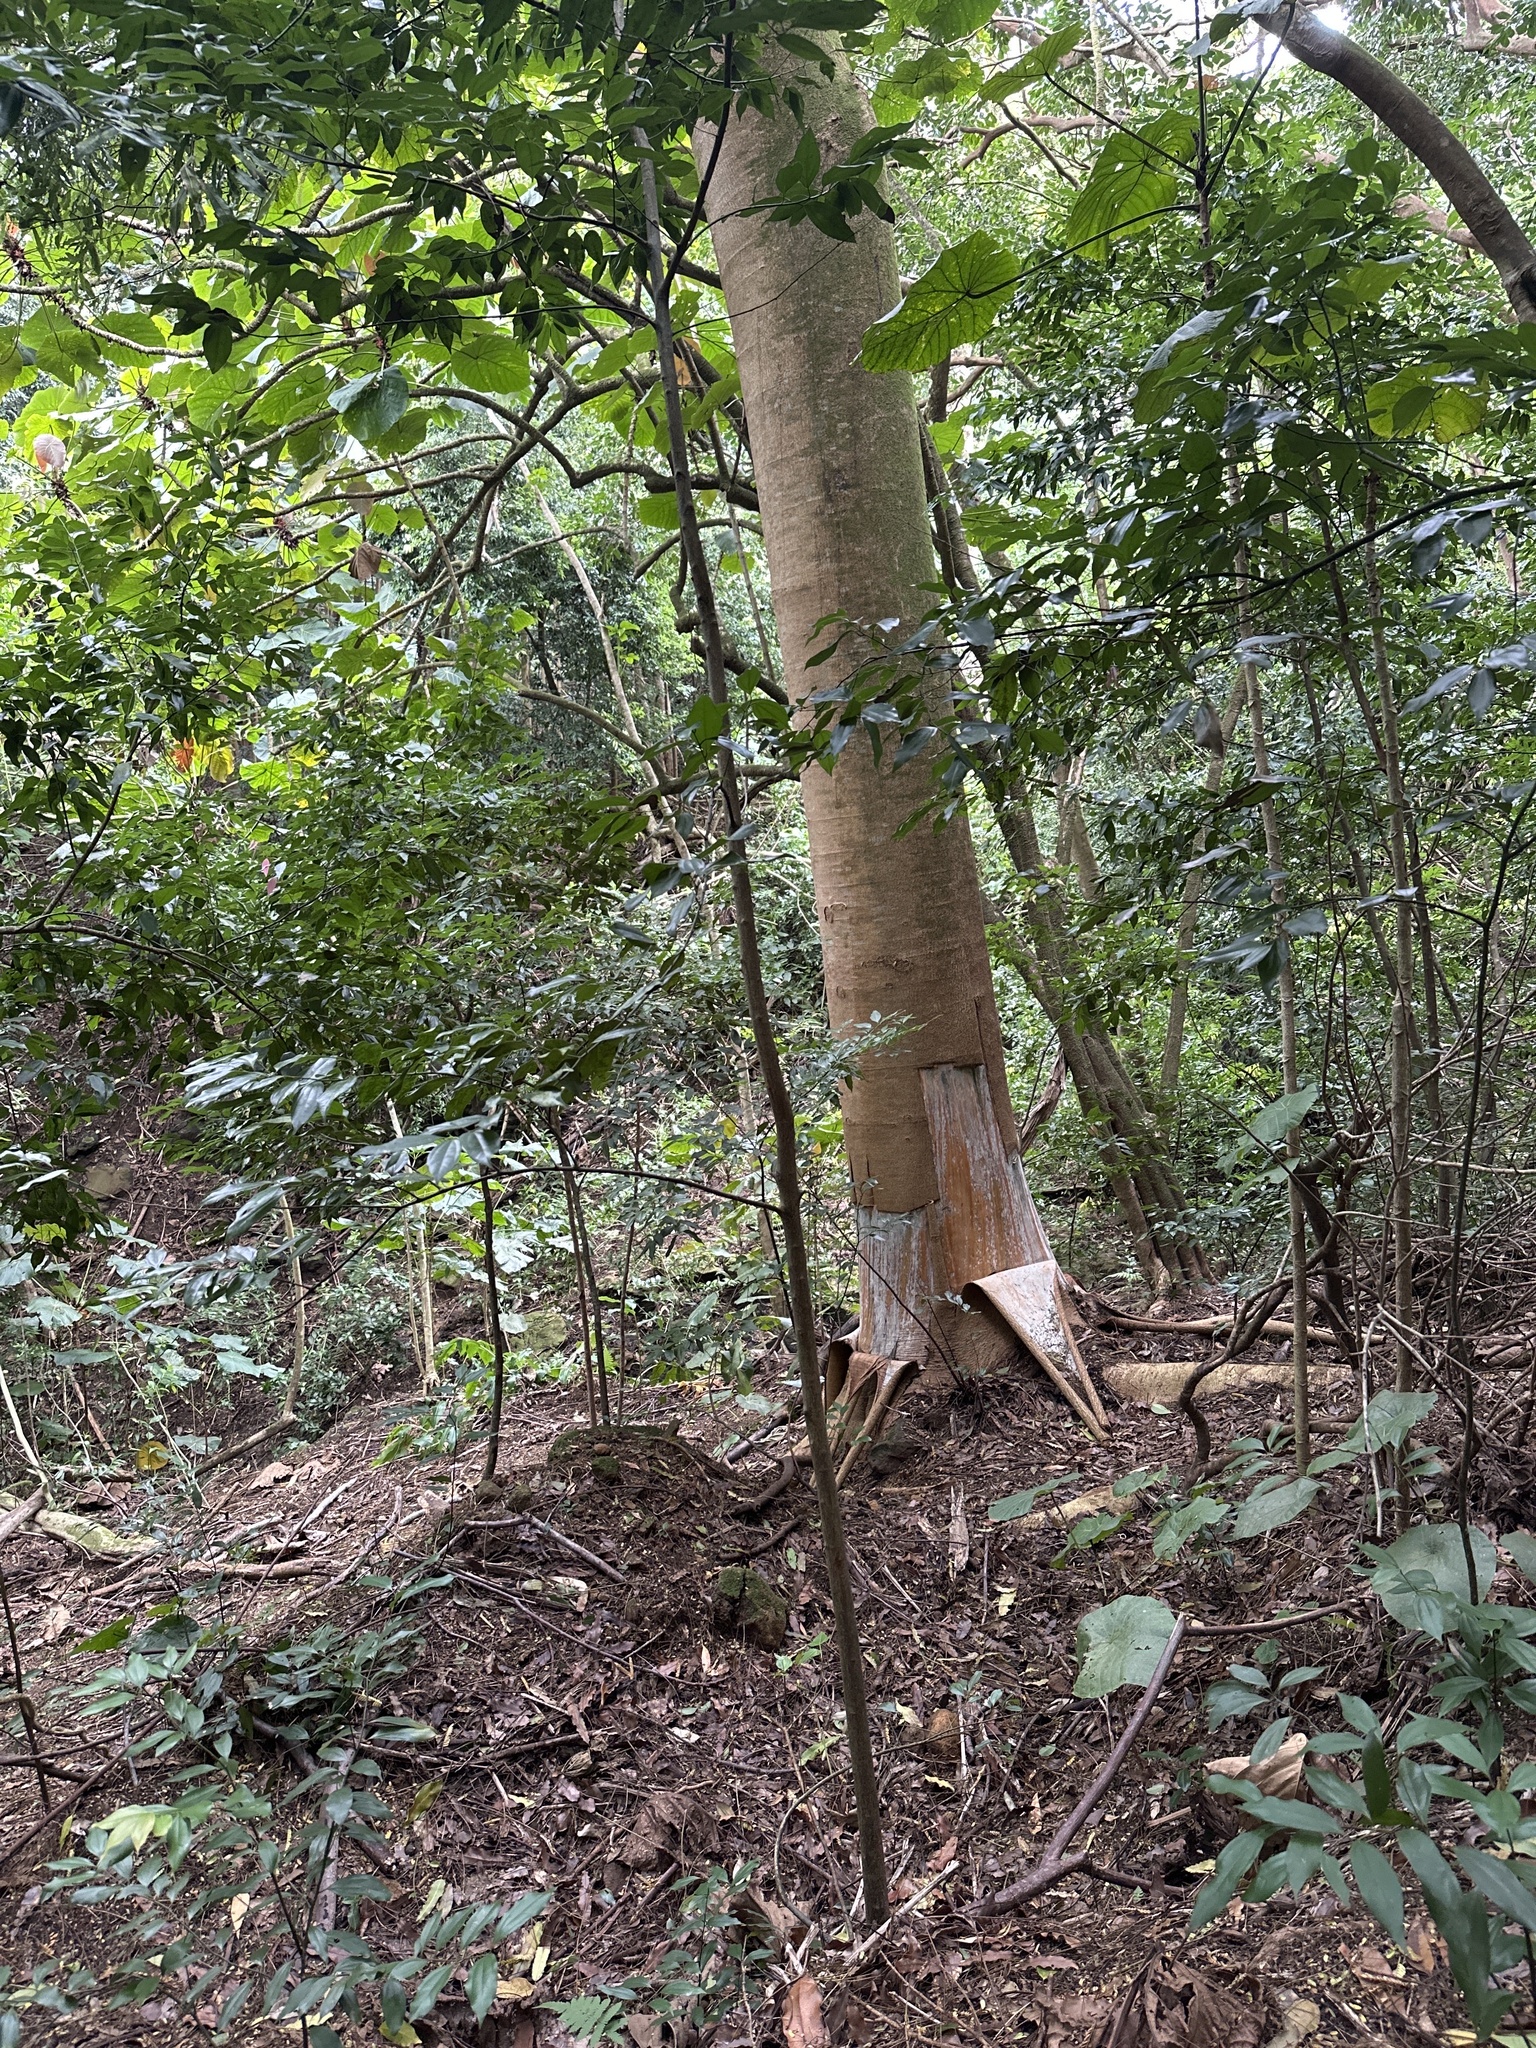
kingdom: Plantae
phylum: Tracheophyta
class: Magnoliopsida
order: Fabales
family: Fabaceae
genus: Falcataria
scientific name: Falcataria falcata
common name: Moluccan albizia
